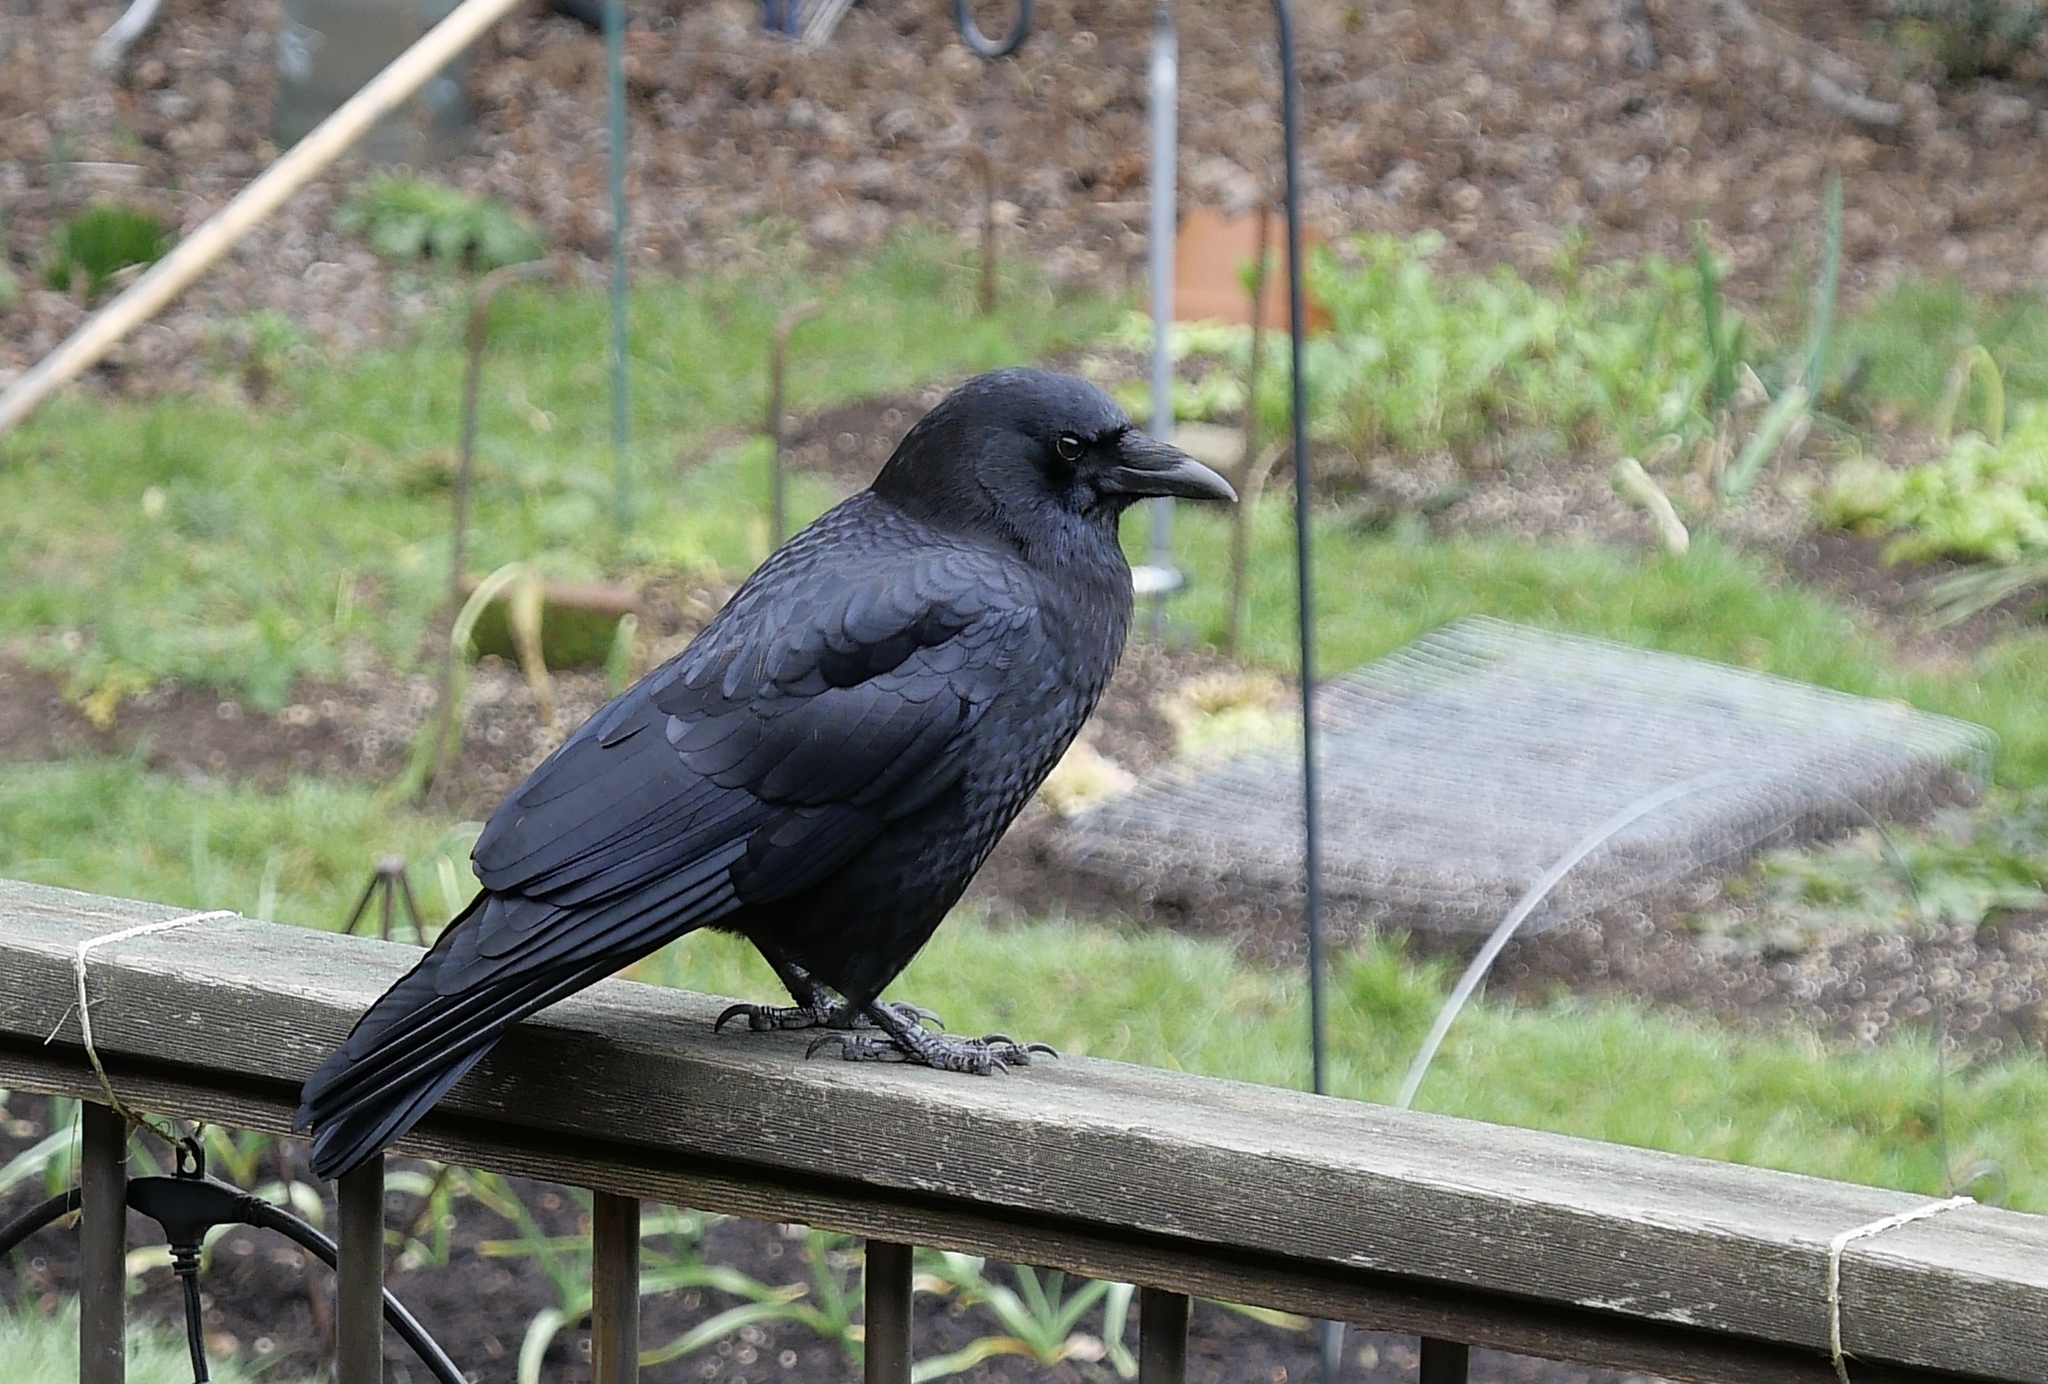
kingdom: Animalia
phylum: Chordata
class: Aves
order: Passeriformes
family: Corvidae
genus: Corvus
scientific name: Corvus brachyrhynchos
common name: American crow
